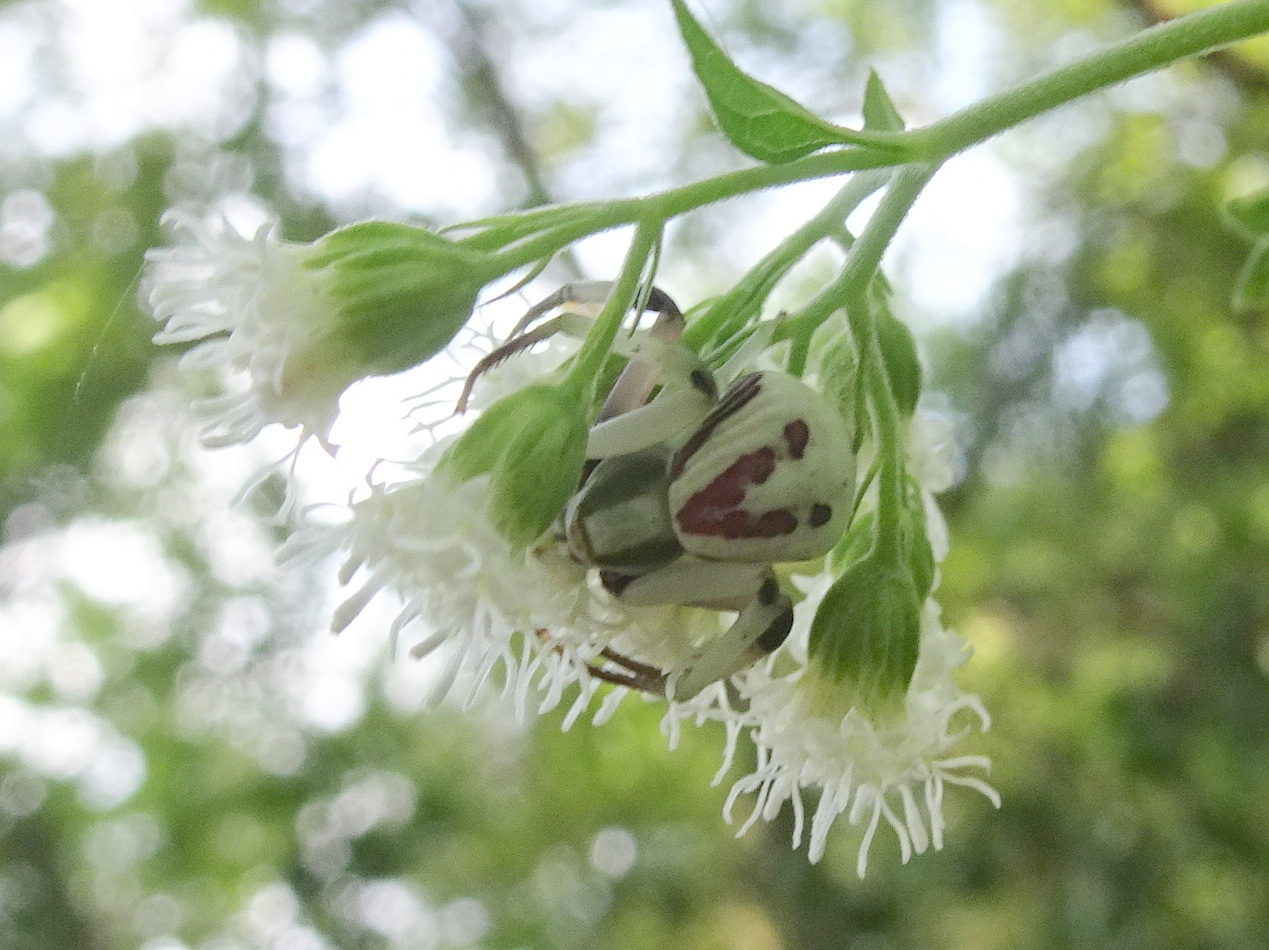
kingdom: Animalia
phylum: Arthropoda
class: Arachnida
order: Araneae
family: Thomisidae
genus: Misumenoides
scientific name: Misumenoides formosipes
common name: White-banded crab spider
